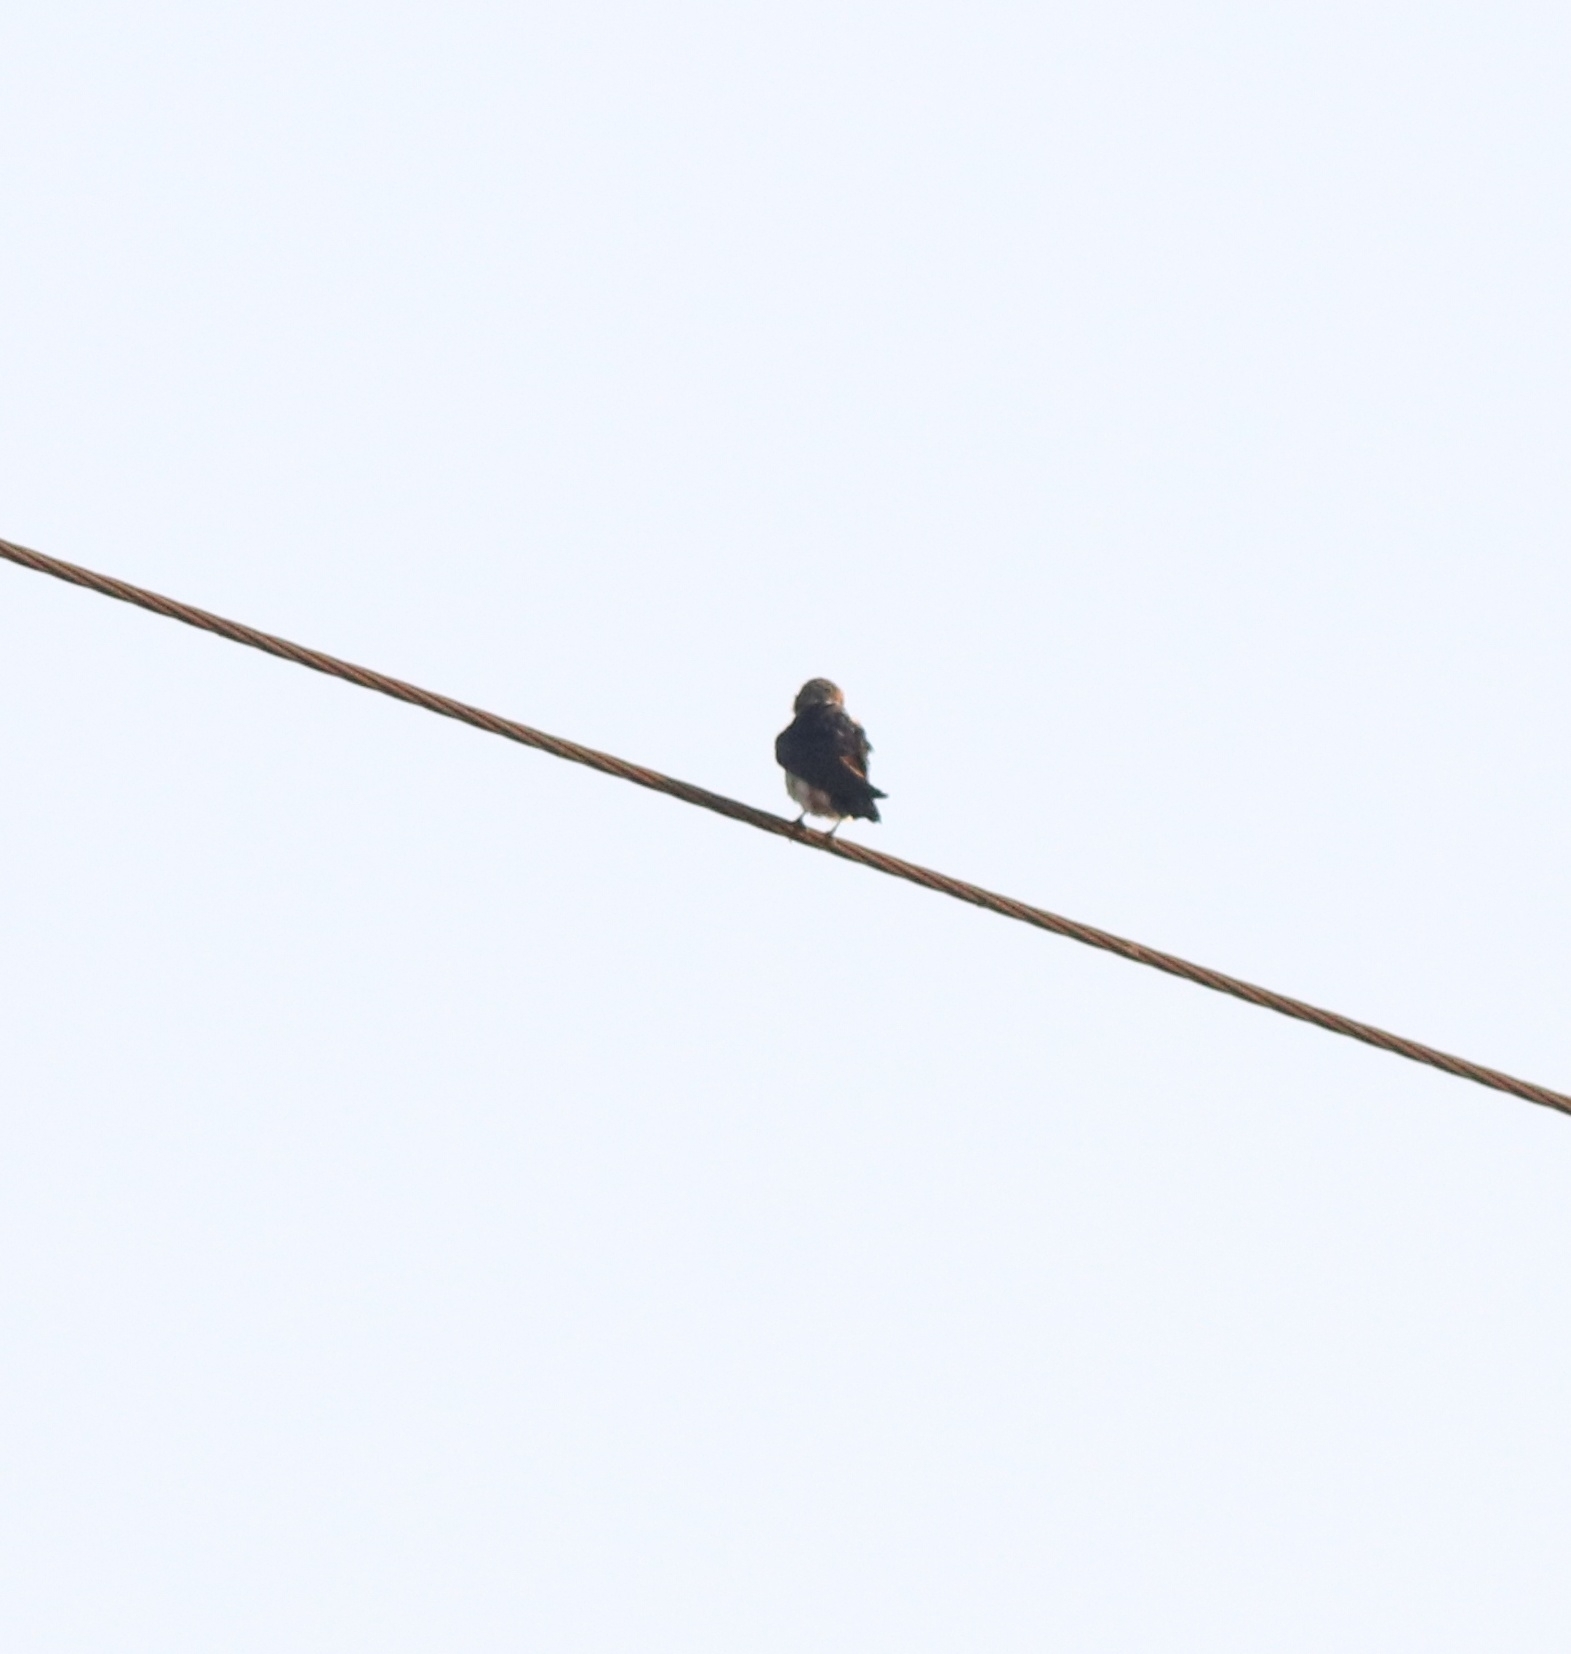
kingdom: Animalia
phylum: Chordata
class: Aves
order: Passeriformes
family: Hirundinidae
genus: Hirundo
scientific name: Hirundo smithii
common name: Wire-tailed swallow
